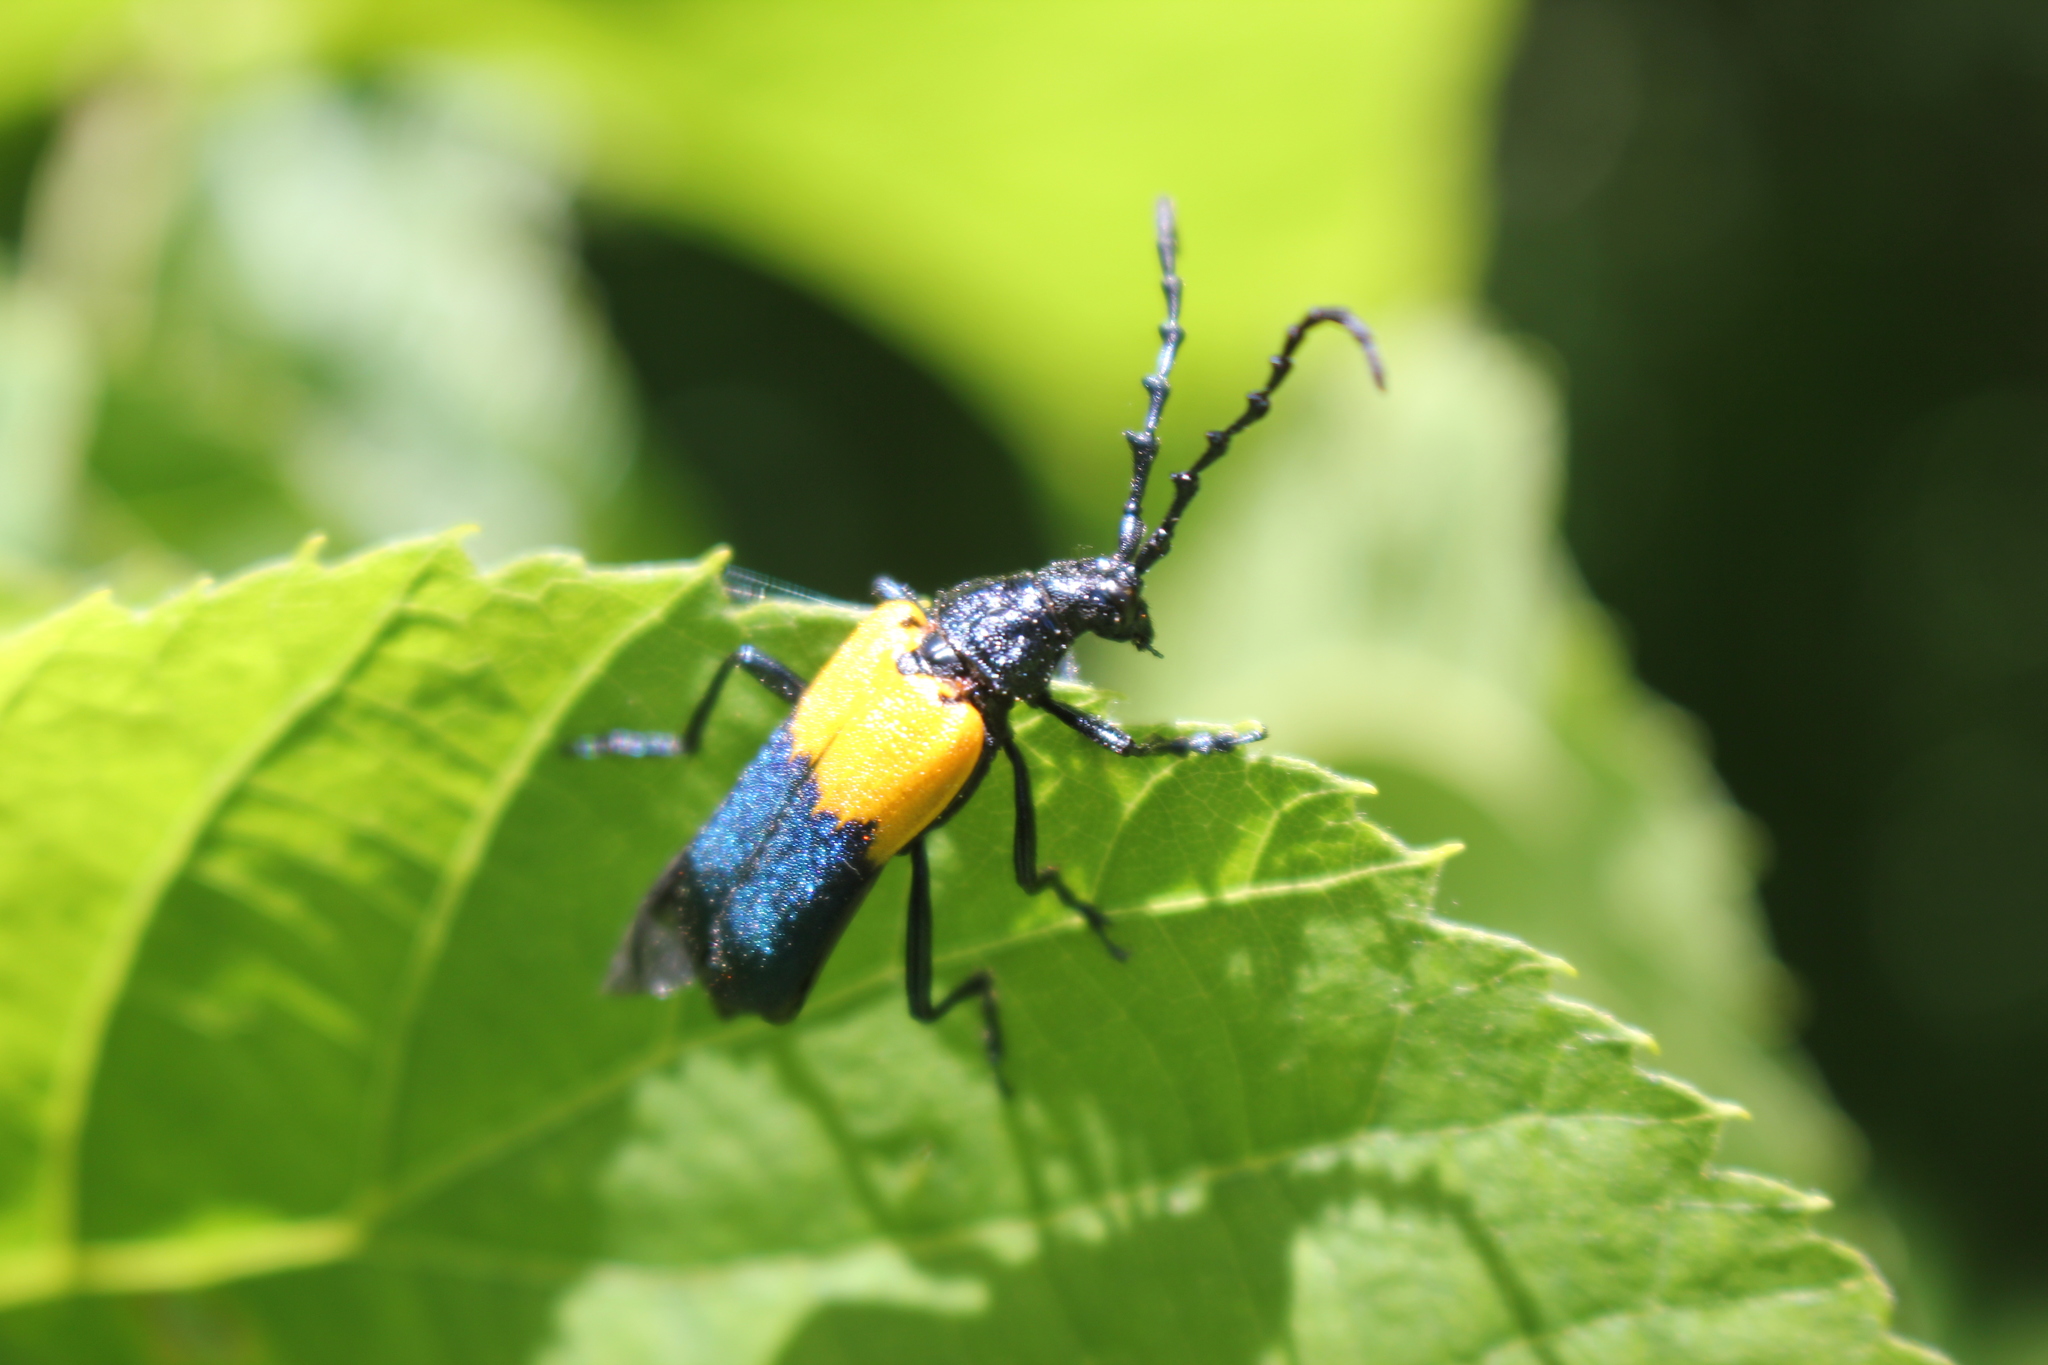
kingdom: Animalia
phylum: Arthropoda
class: Insecta
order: Coleoptera
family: Cerambycidae
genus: Desmocerus
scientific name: Desmocerus palliatus
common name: Eastern elderberry borer
